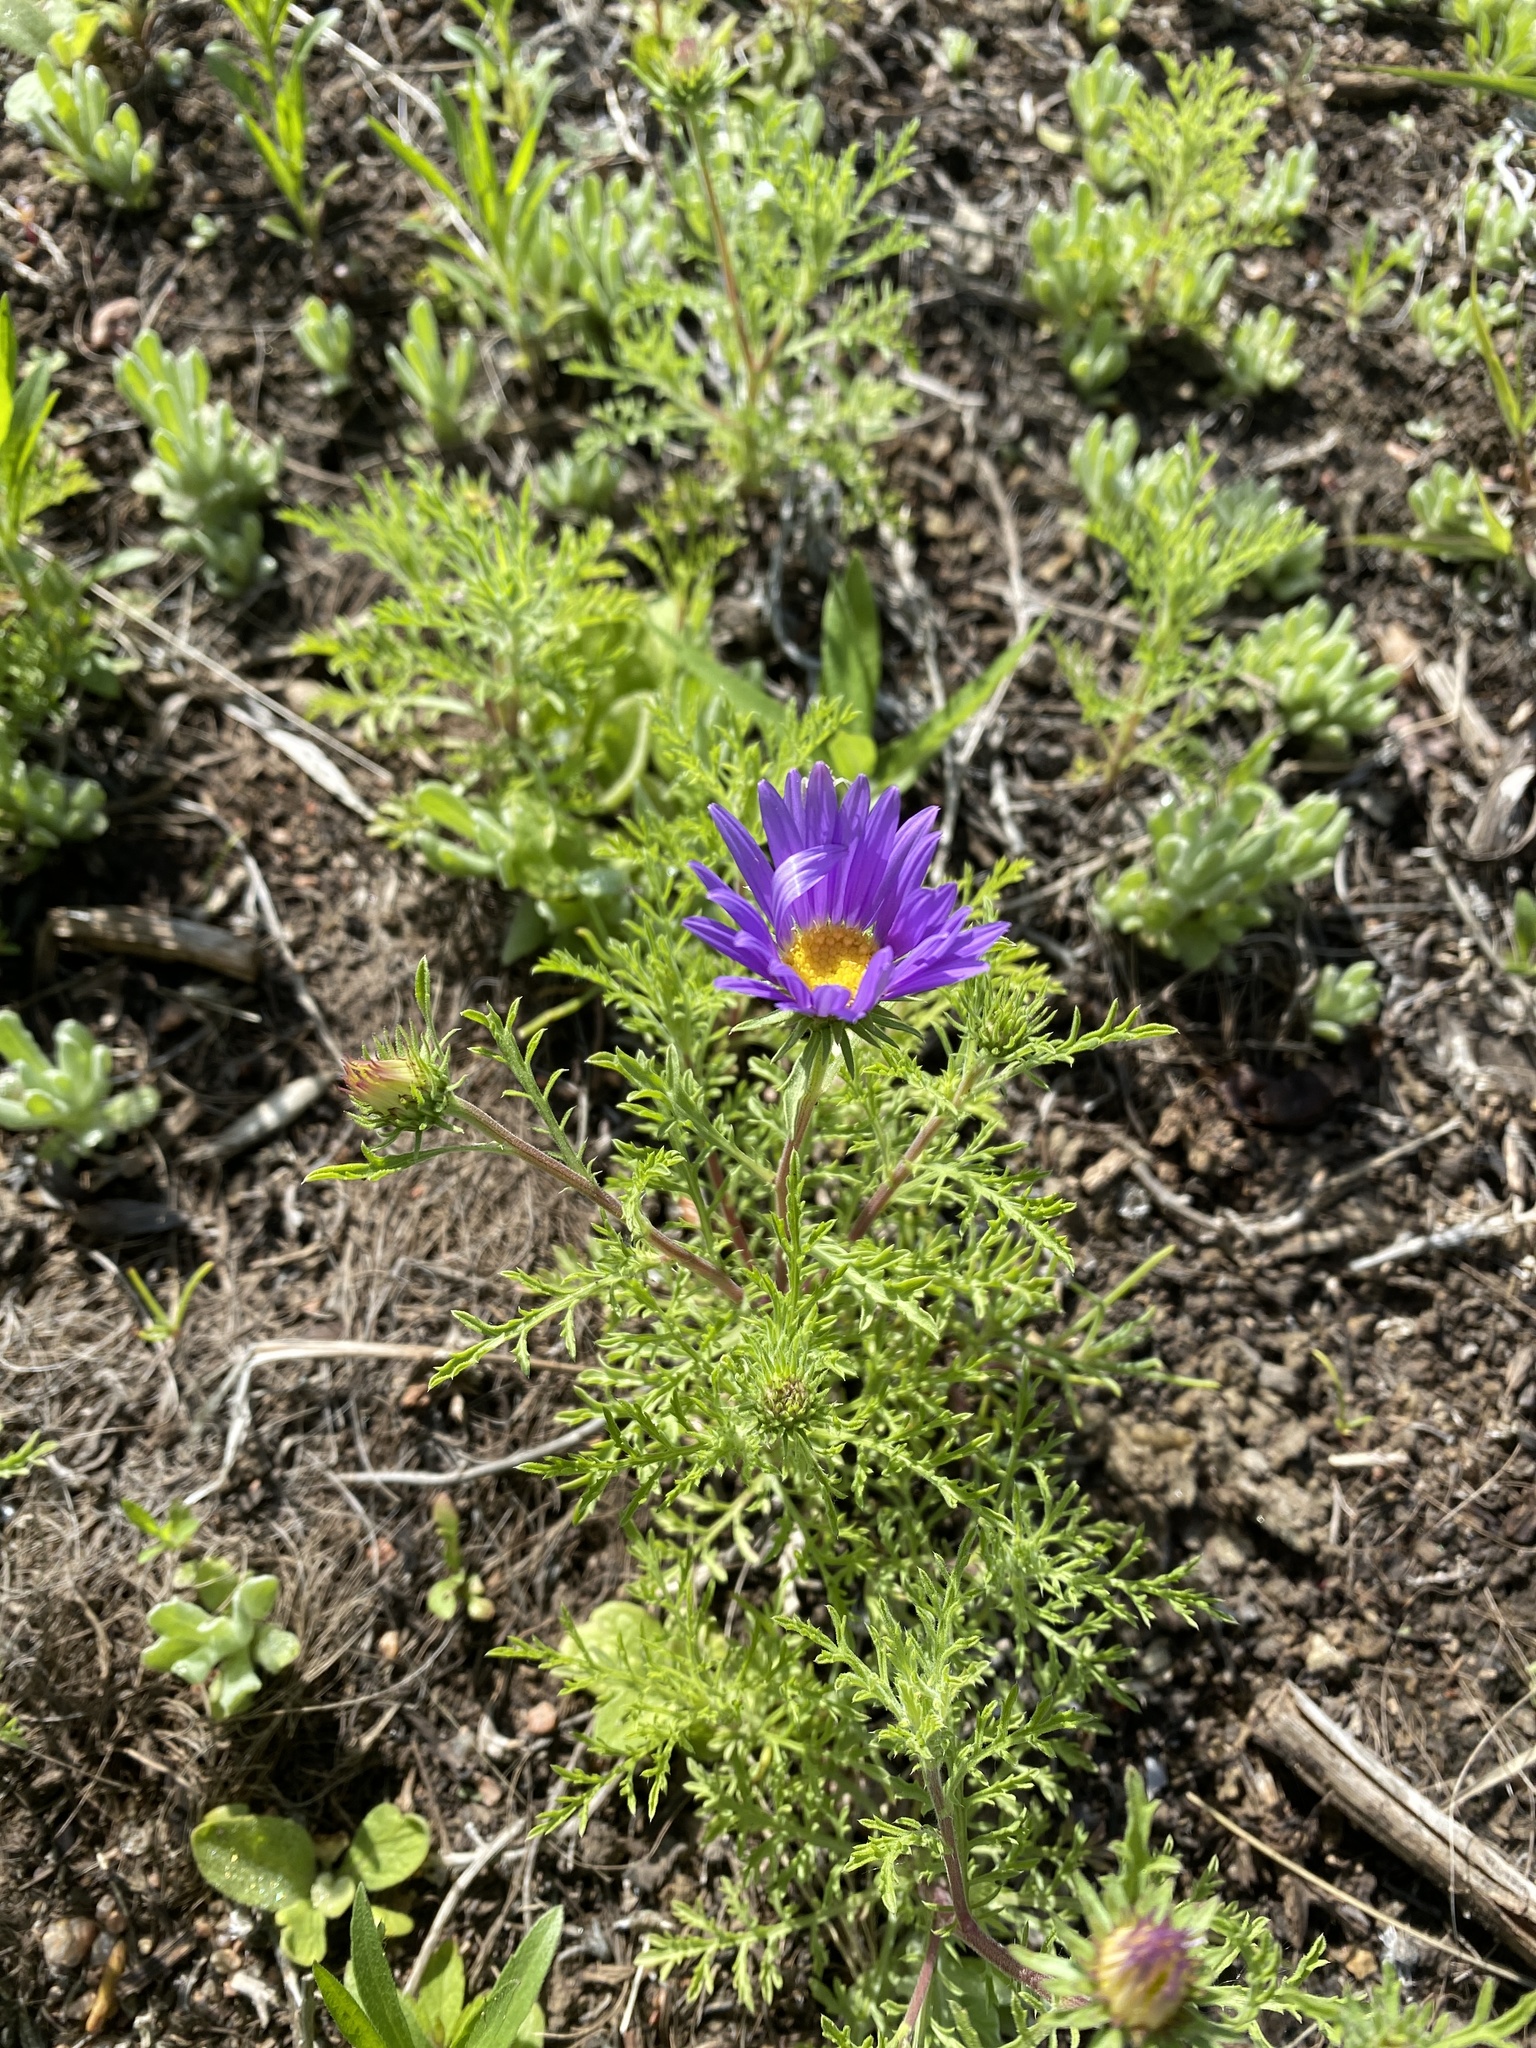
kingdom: Plantae
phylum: Tracheophyta
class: Magnoliopsida
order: Asterales
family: Asteraceae
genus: Machaeranthera
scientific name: Machaeranthera tanacetifolia
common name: Tansy-aster
